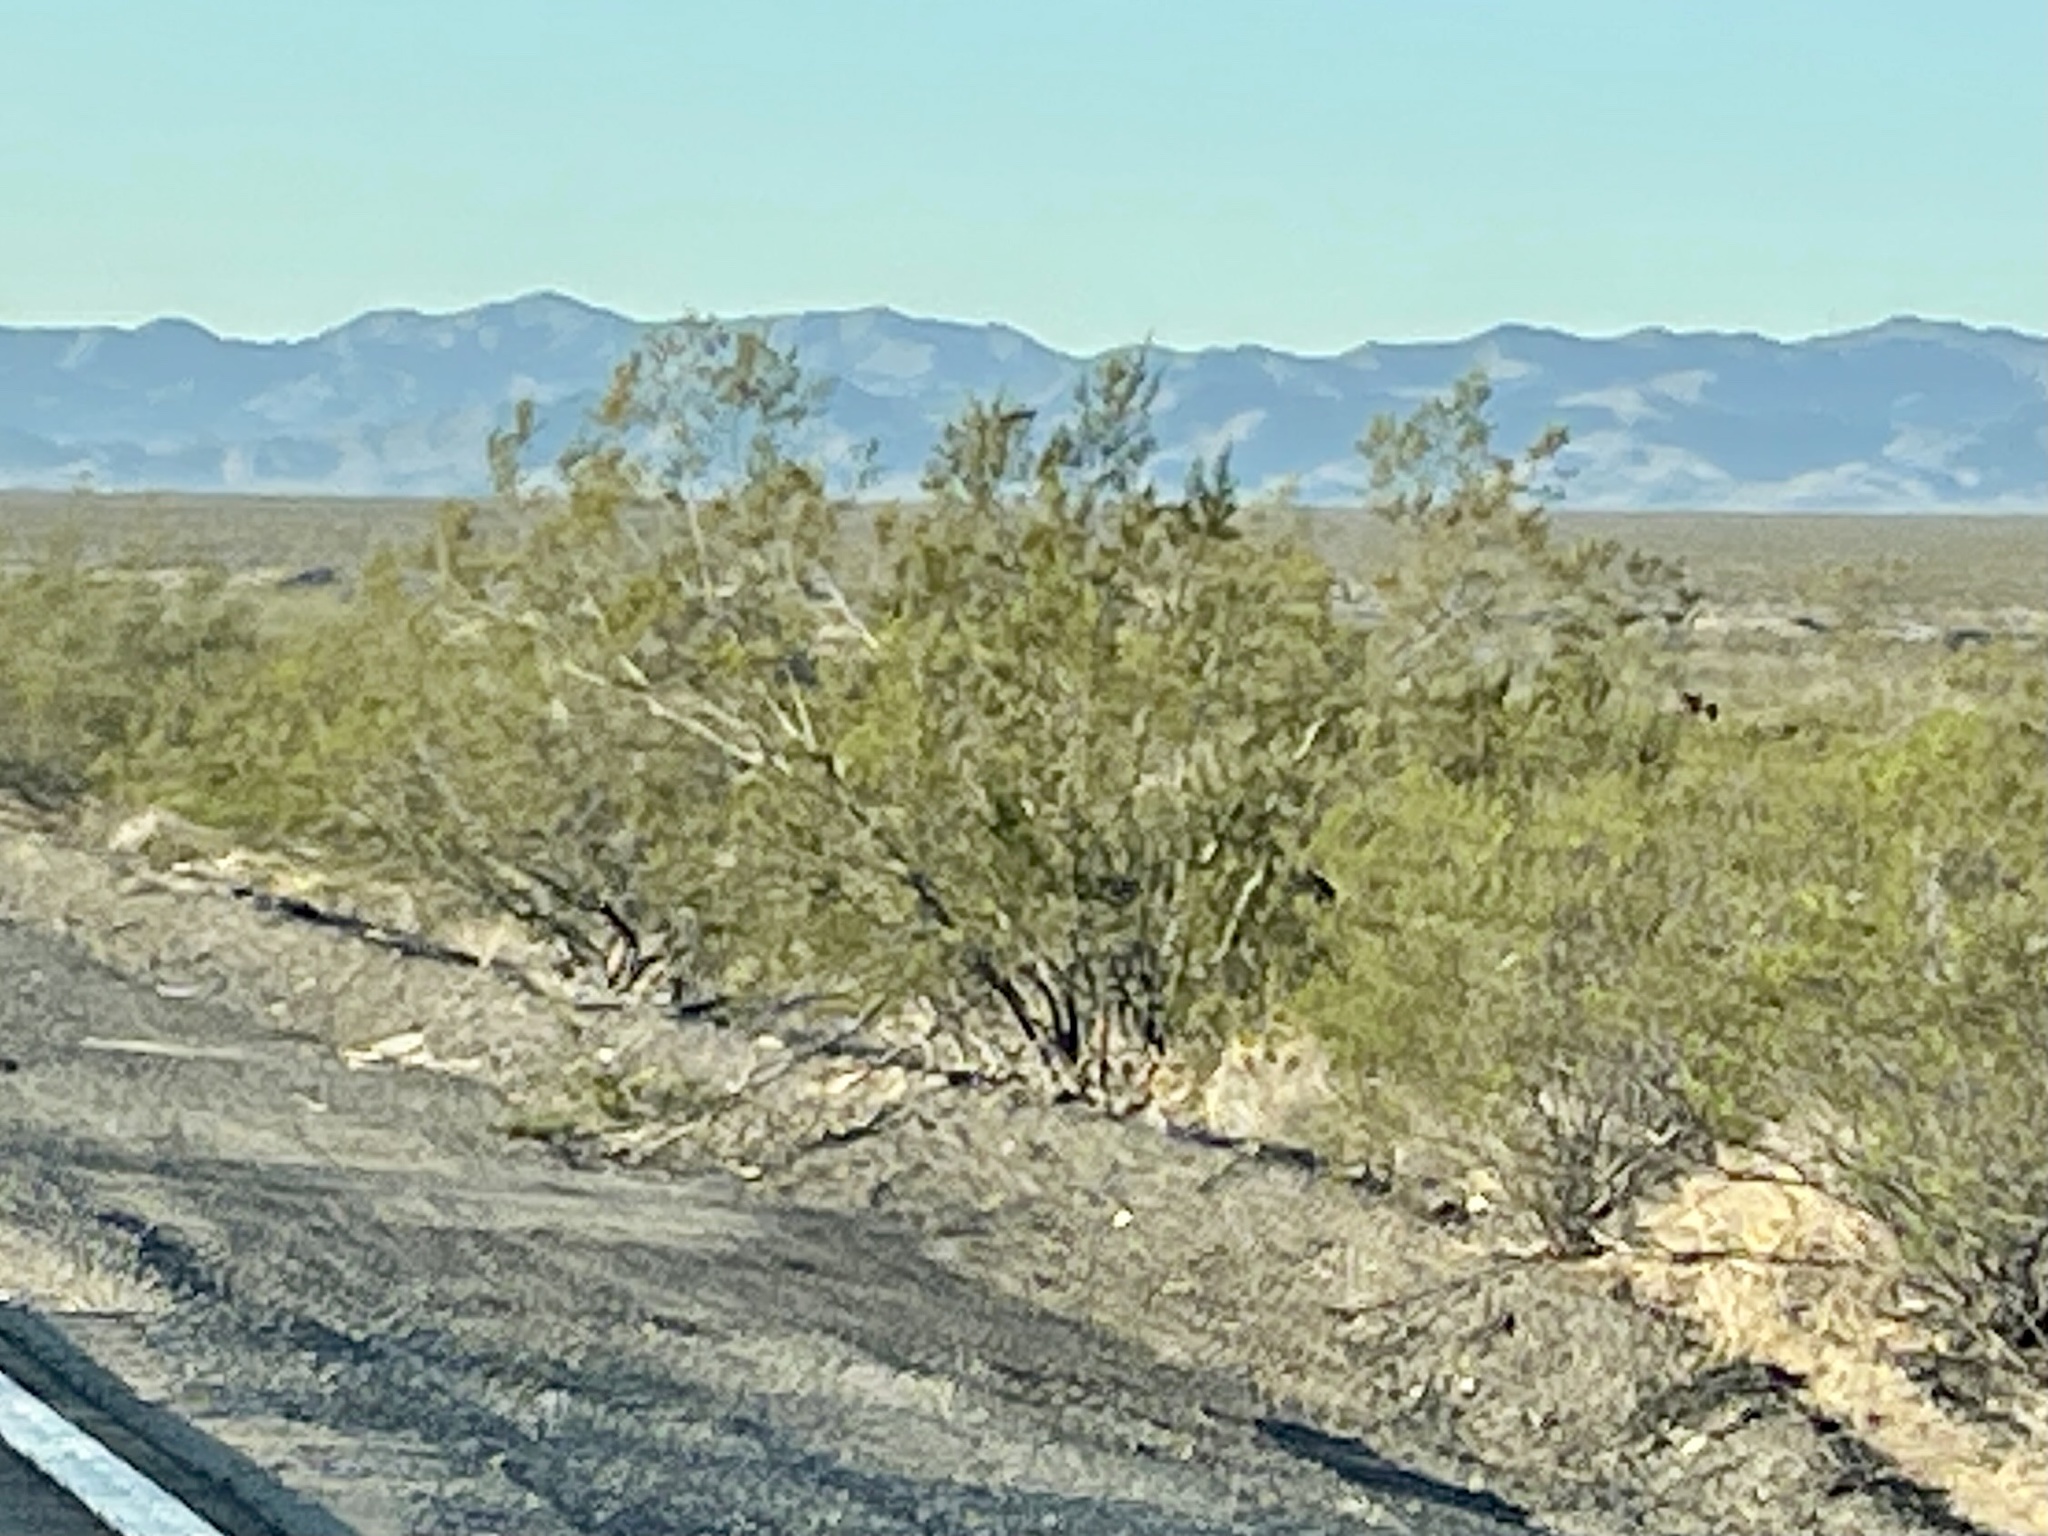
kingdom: Plantae
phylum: Tracheophyta
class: Magnoliopsida
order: Zygophyllales
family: Zygophyllaceae
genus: Larrea
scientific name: Larrea tridentata
